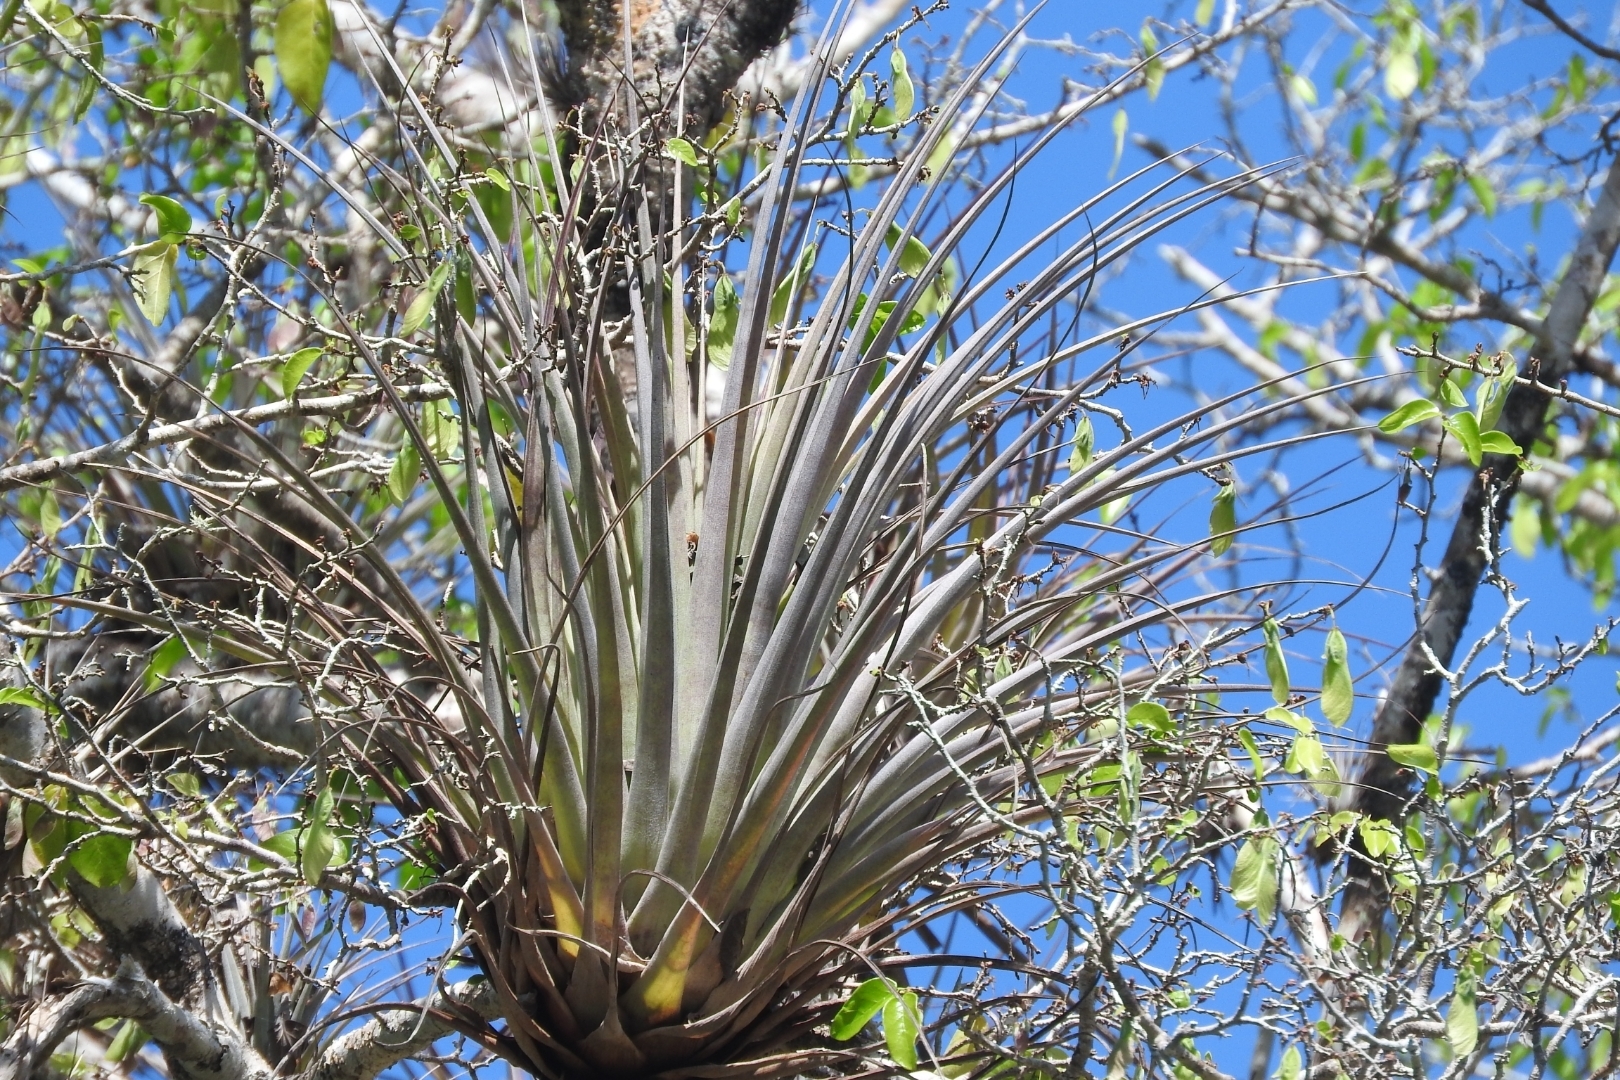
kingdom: Plantae
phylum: Tracheophyta
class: Liliopsida
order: Poales
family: Bromeliaceae
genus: Tillandsia
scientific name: Tillandsia fasciculata
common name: Giant airplant
